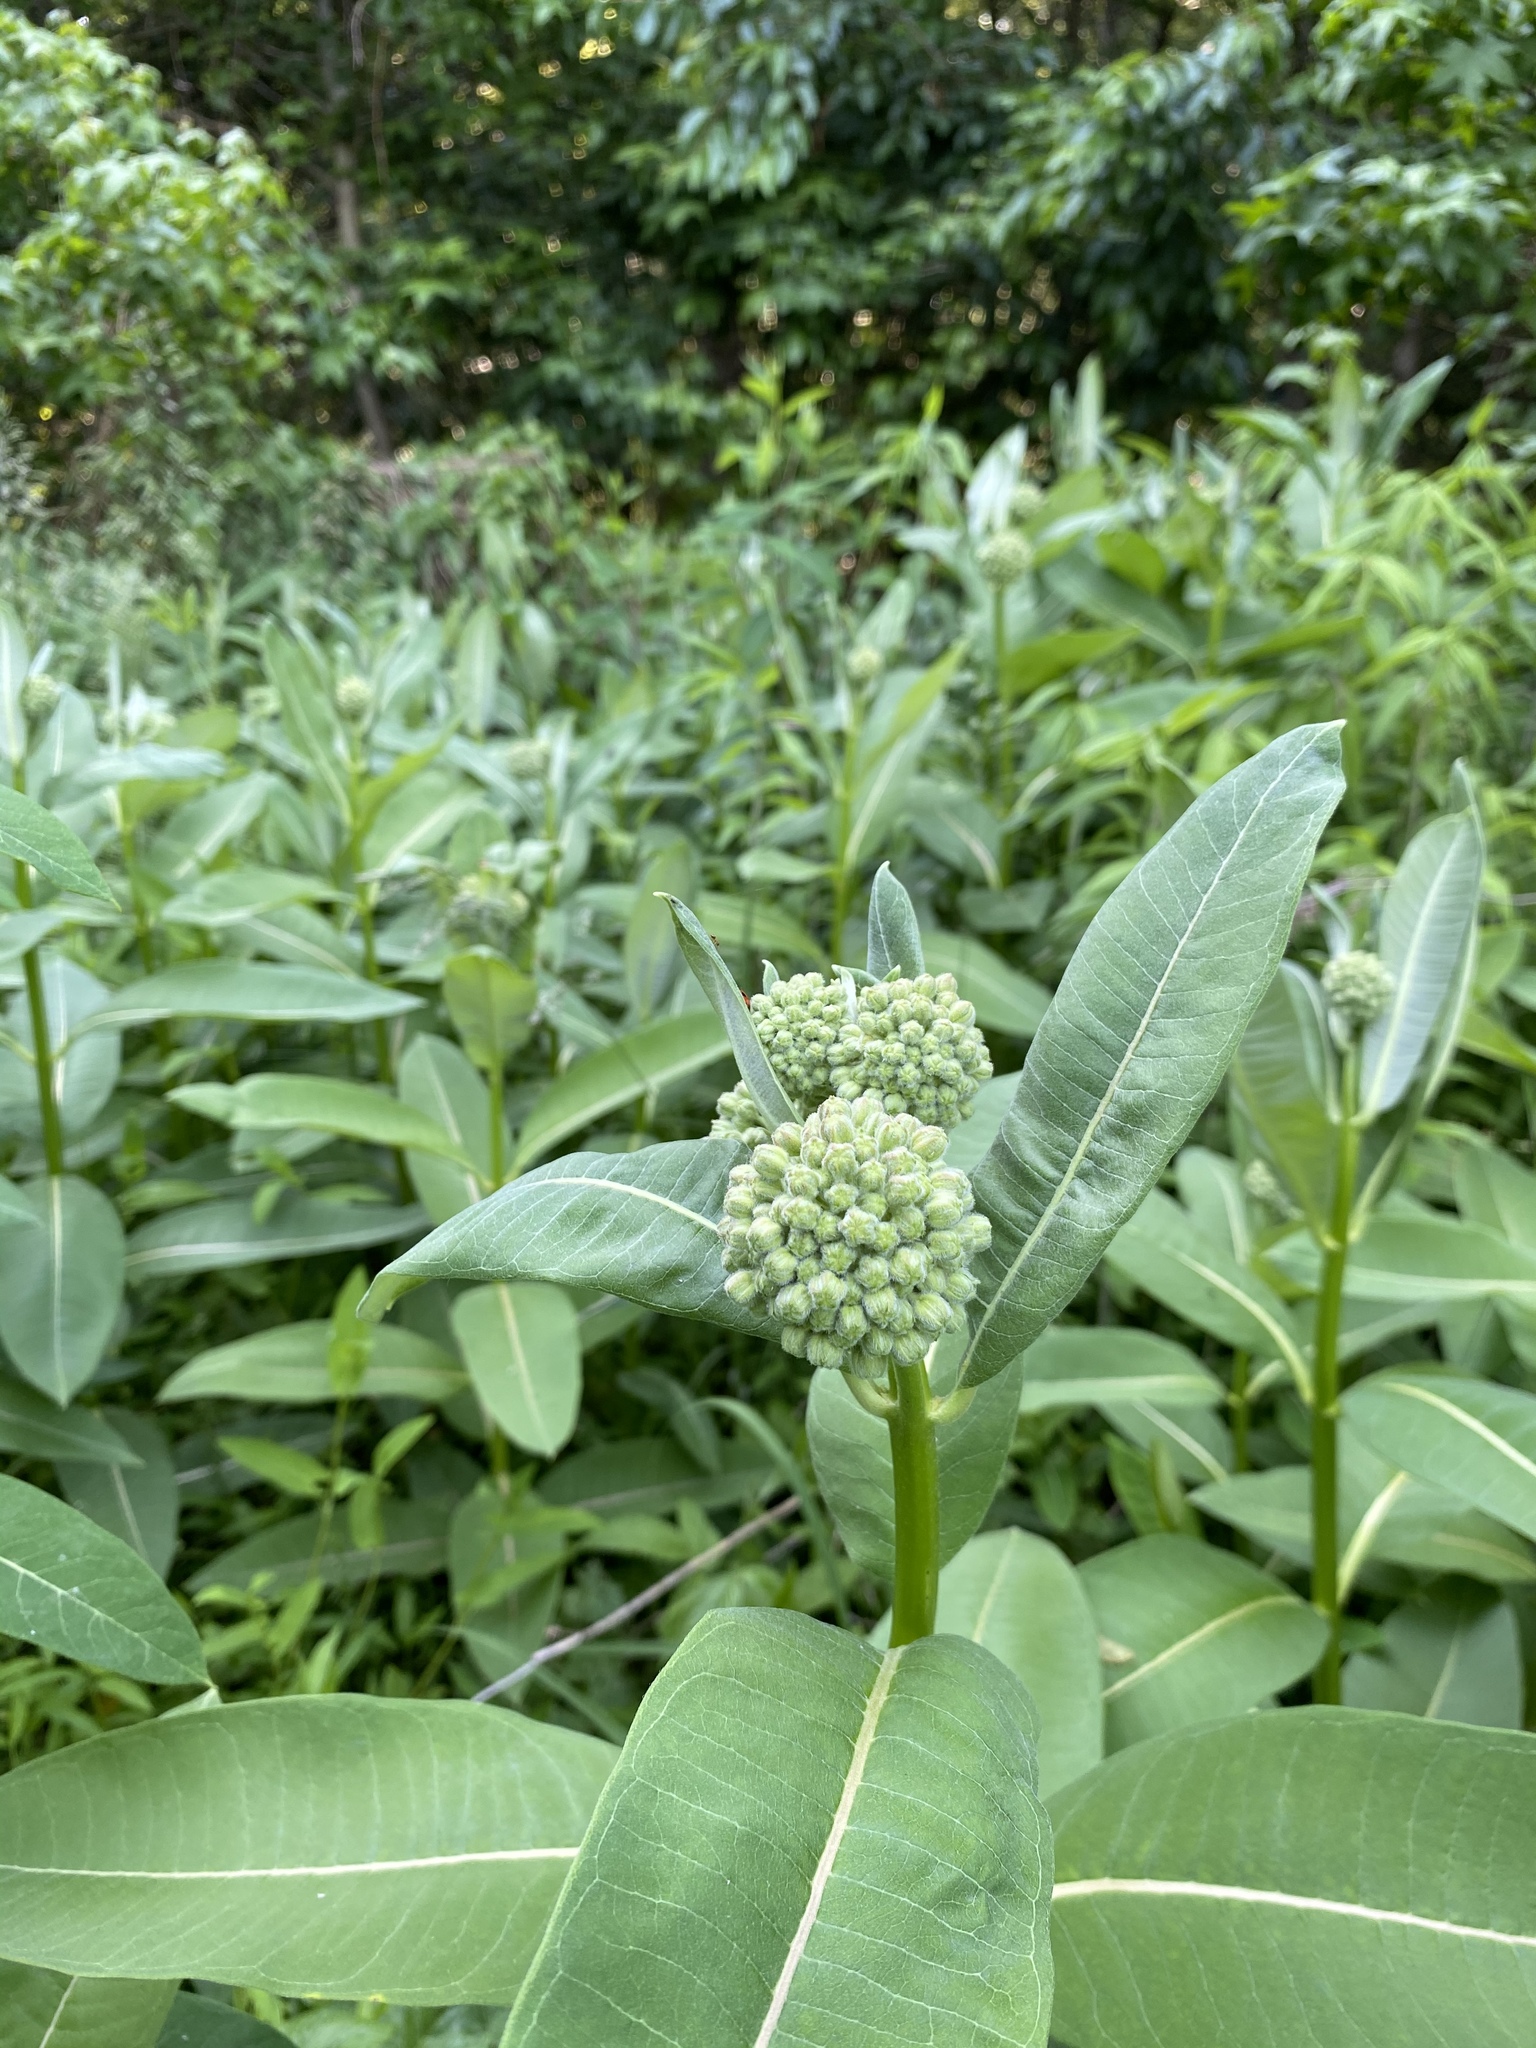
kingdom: Plantae
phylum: Tracheophyta
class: Magnoliopsida
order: Gentianales
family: Apocynaceae
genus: Asclepias
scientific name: Asclepias syriaca
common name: Common milkweed
